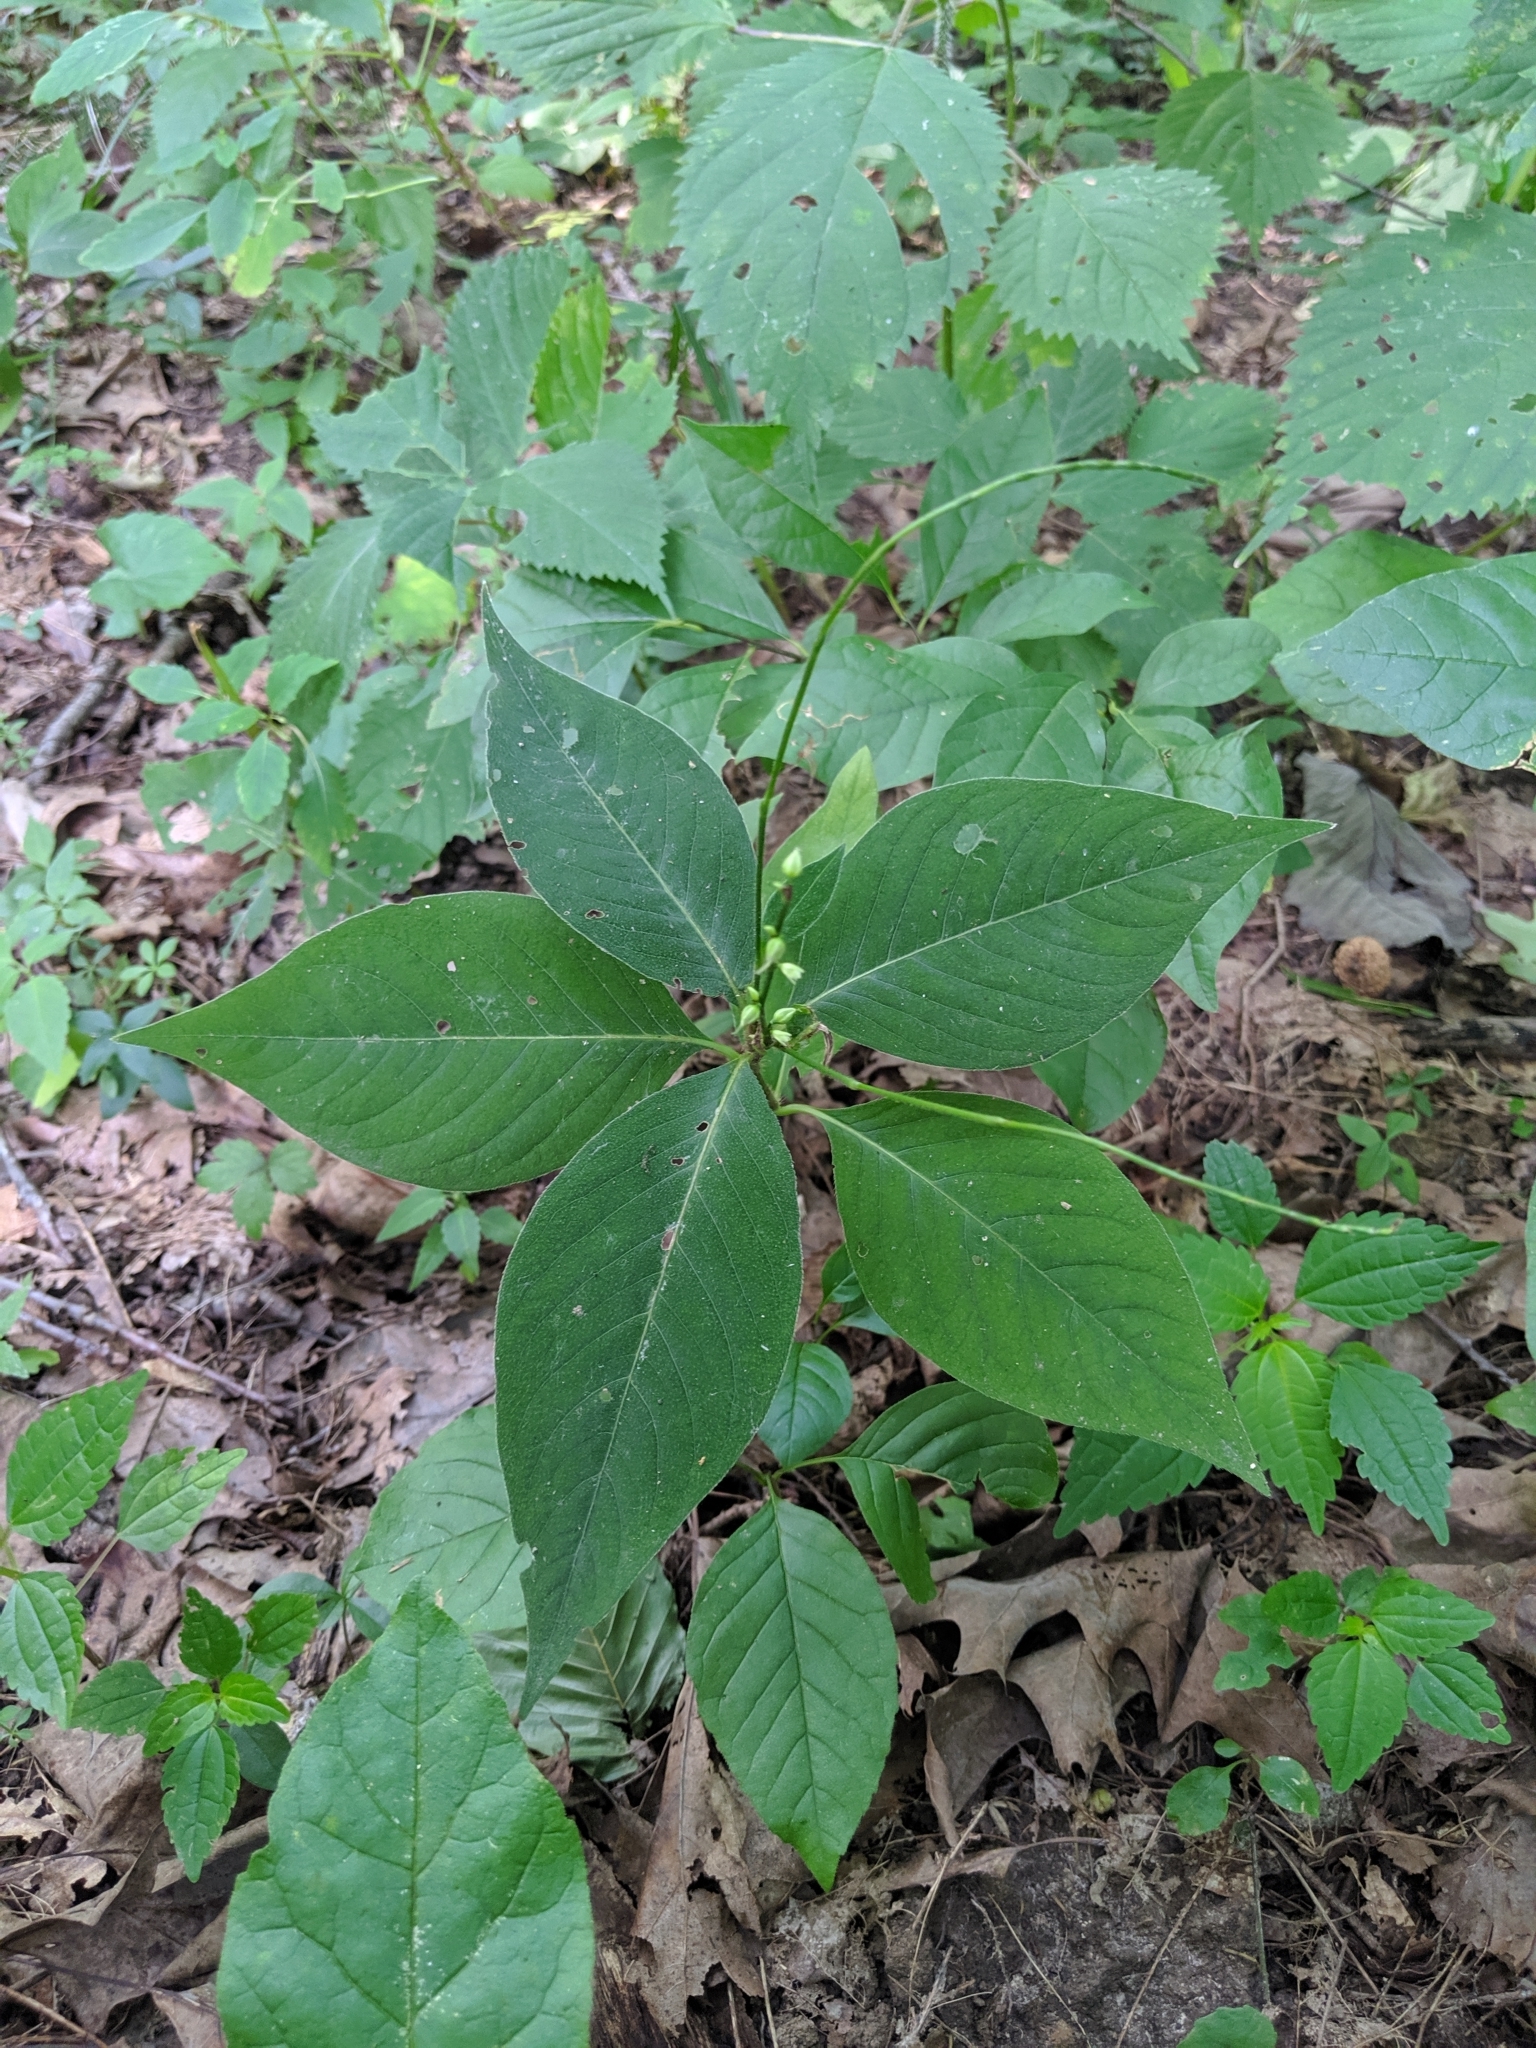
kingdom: Plantae
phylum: Tracheophyta
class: Magnoliopsida
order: Caryophyllales
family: Polygonaceae
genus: Persicaria
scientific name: Persicaria virginiana
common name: Jumpseed
